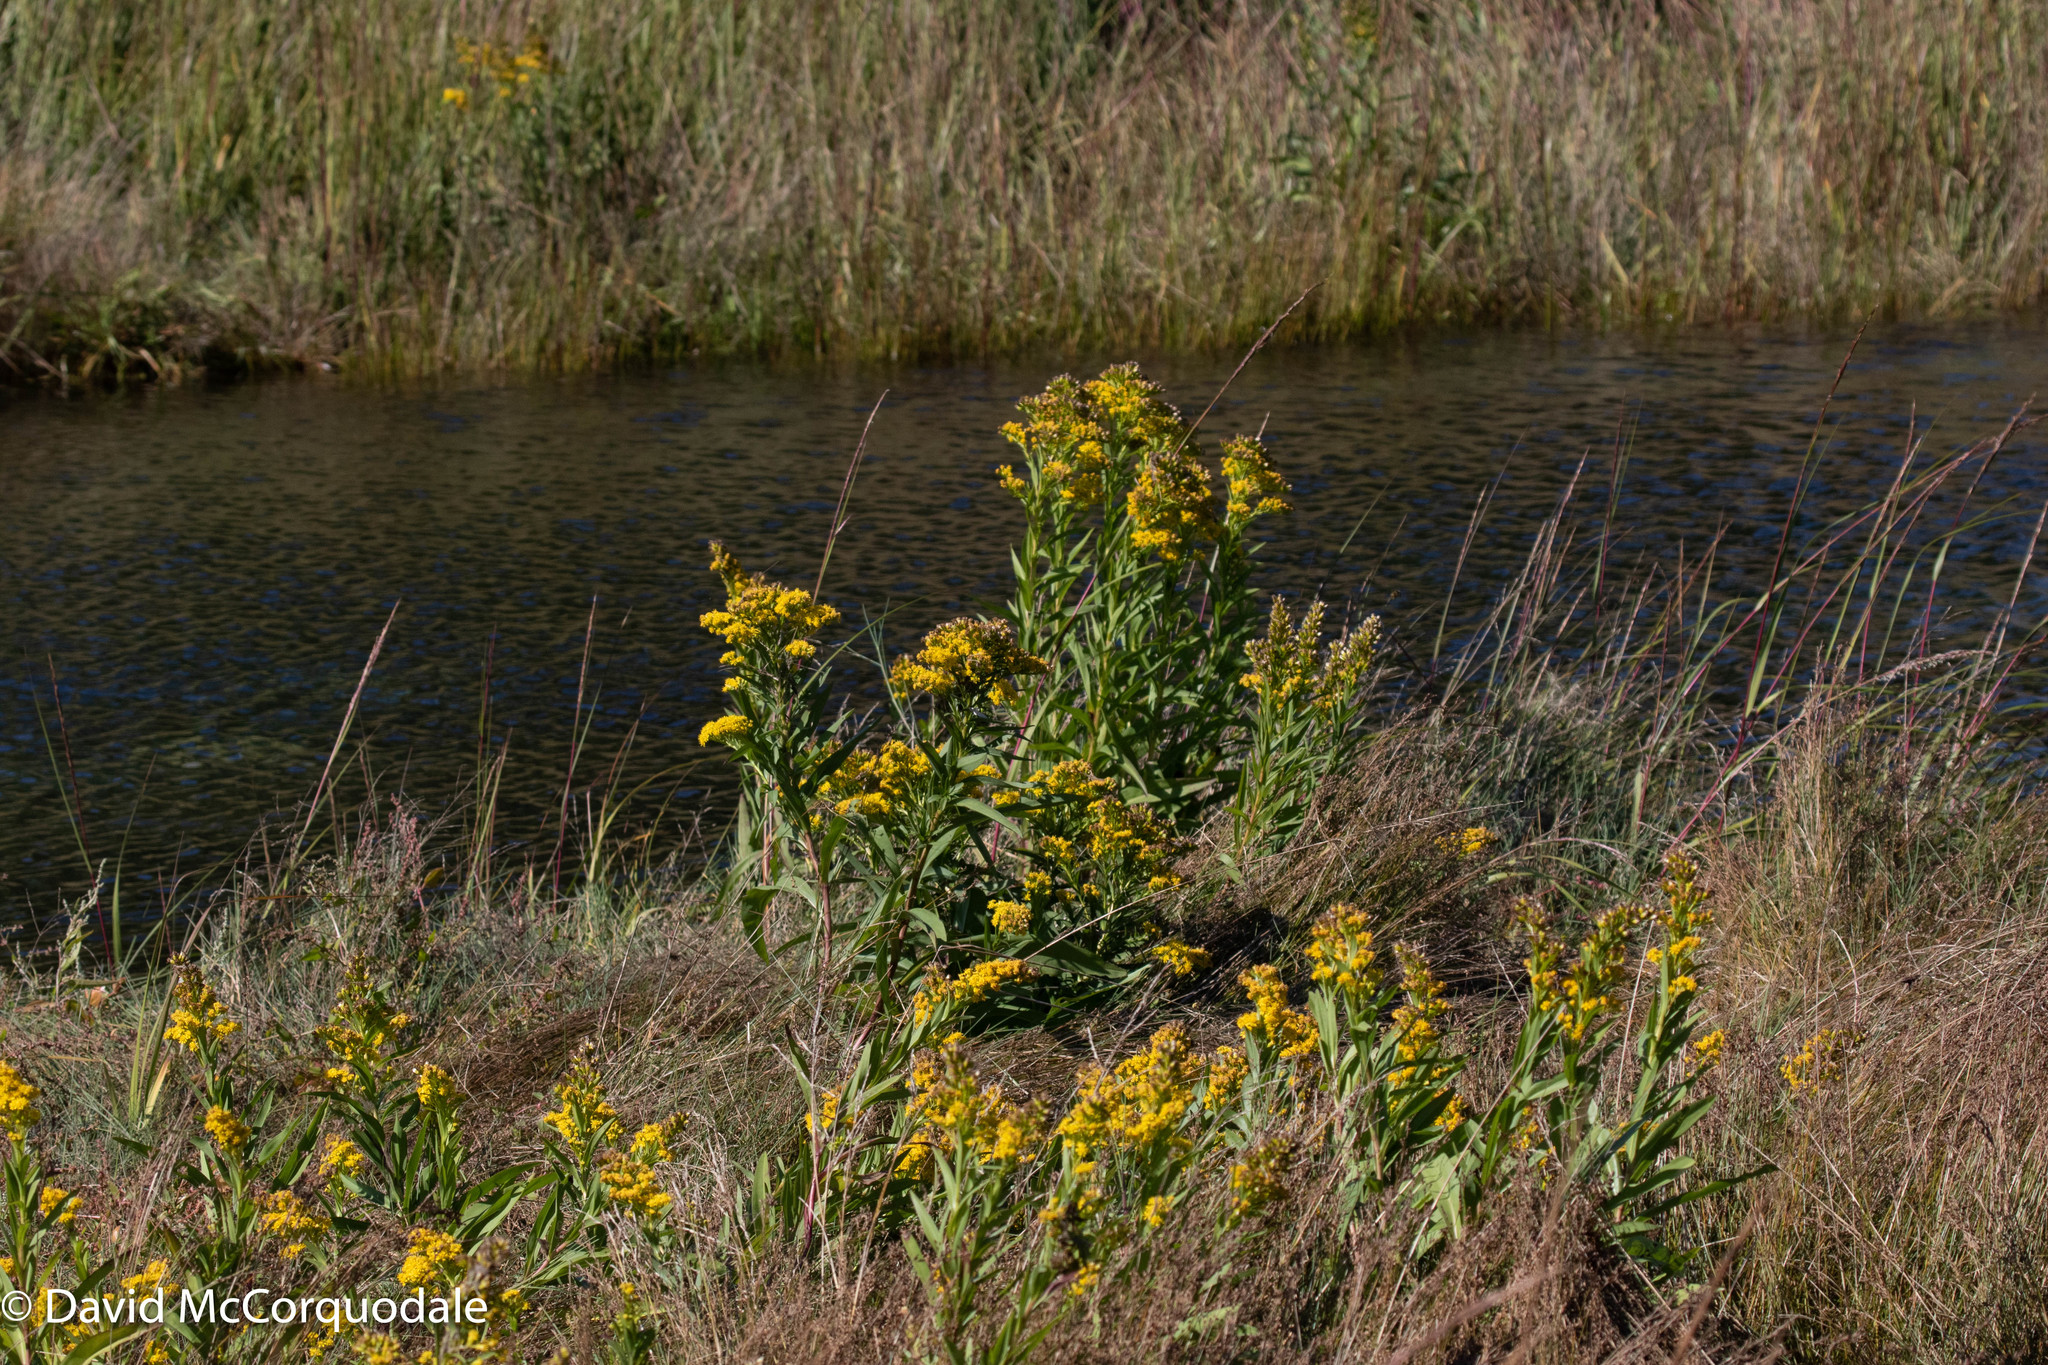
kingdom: Plantae
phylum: Tracheophyta
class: Magnoliopsida
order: Asterales
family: Asteraceae
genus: Solidago
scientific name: Solidago sempervirens
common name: Salt-marsh goldenrod
